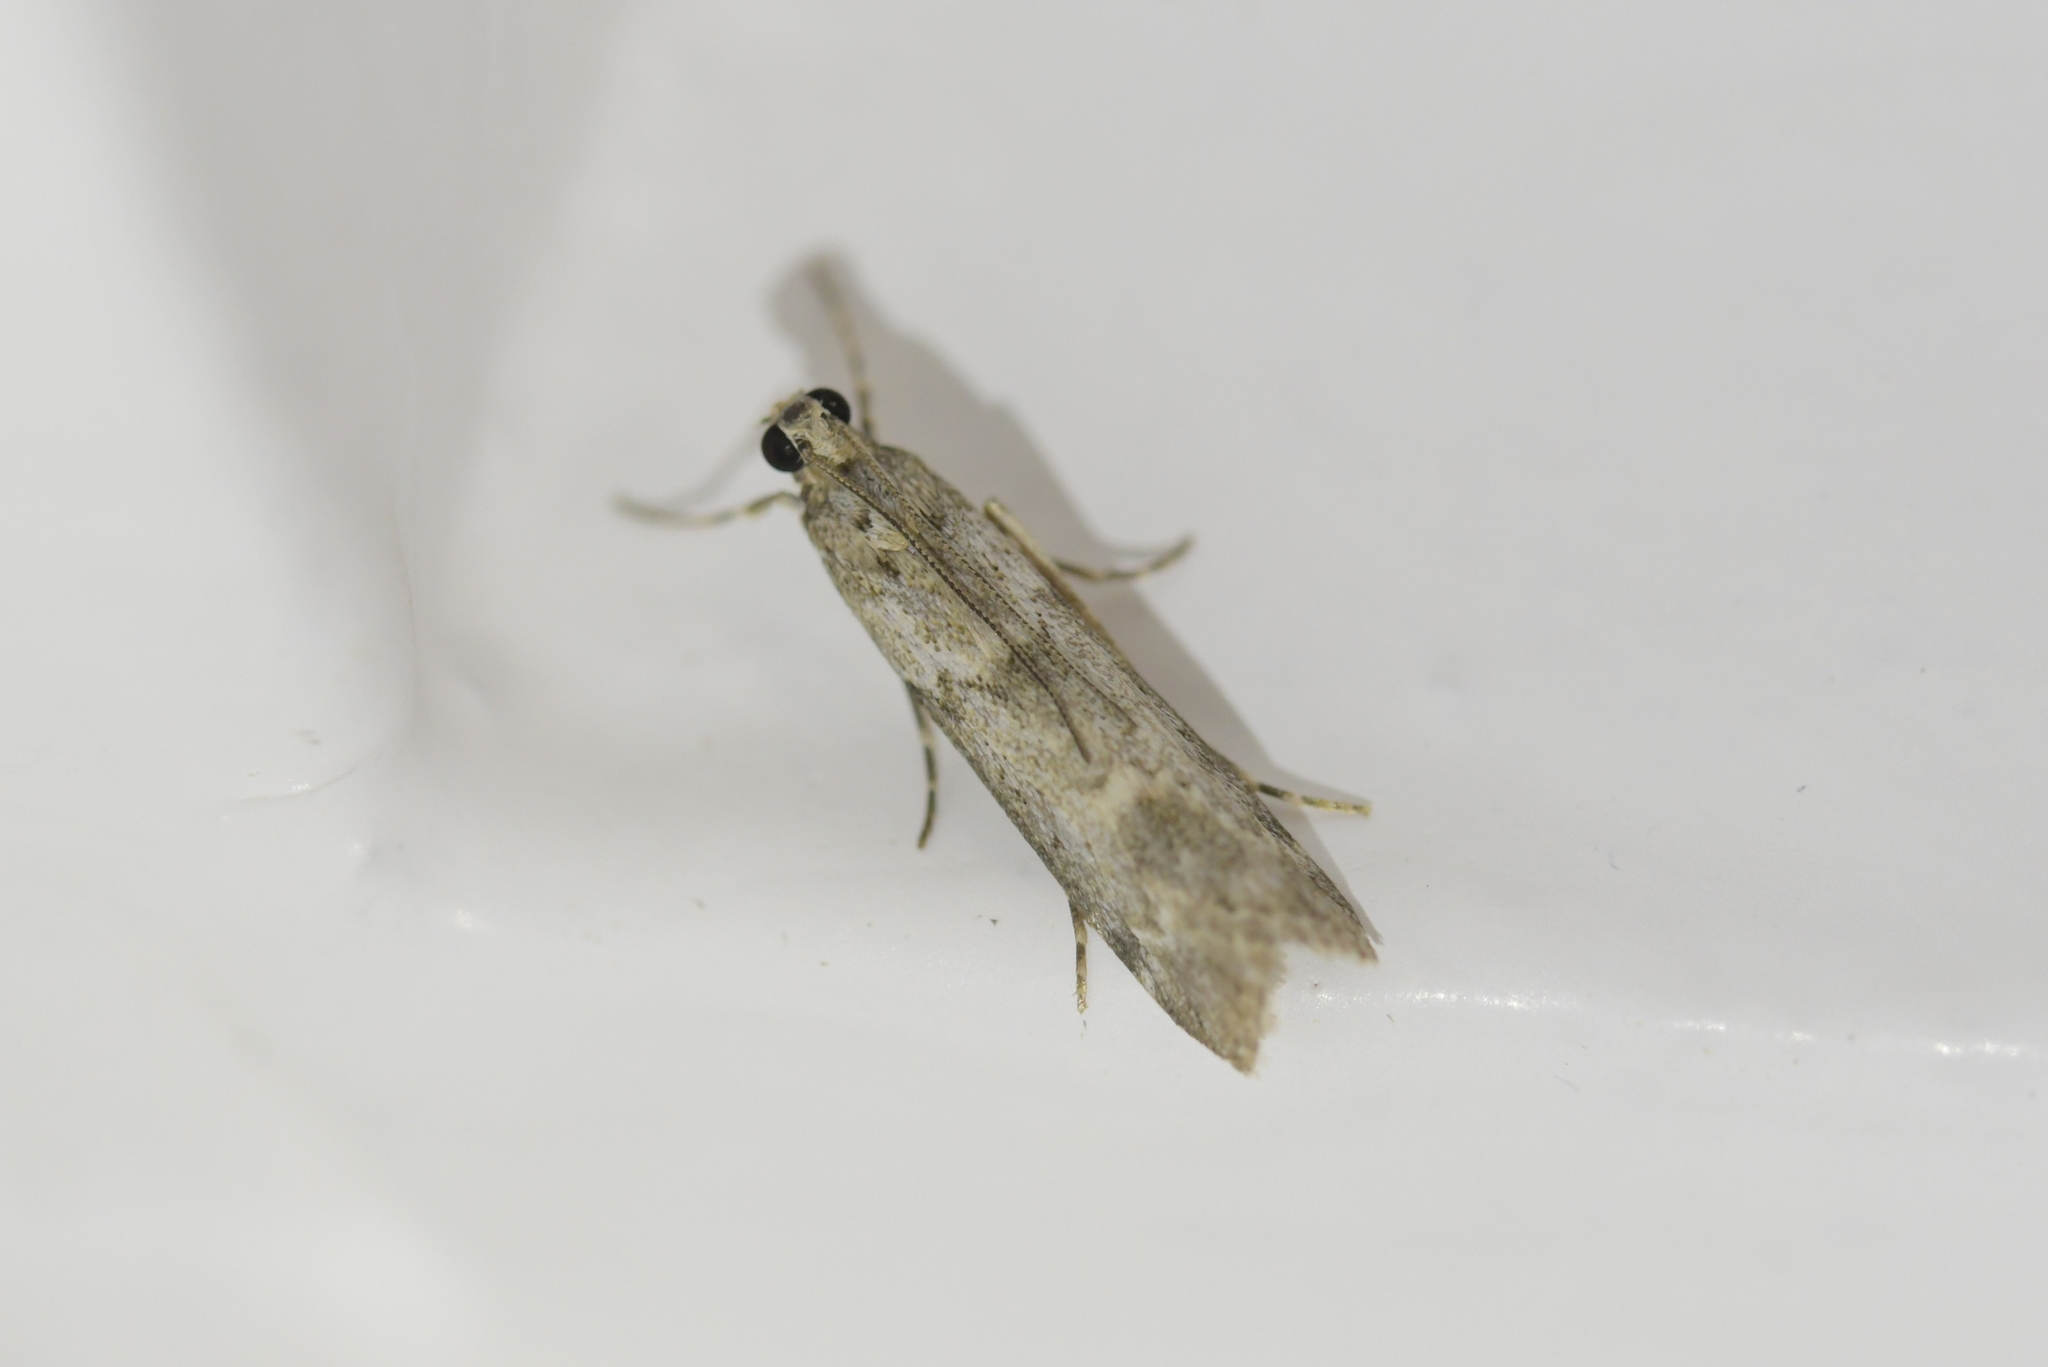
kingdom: Animalia
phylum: Arthropoda
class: Insecta
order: Lepidoptera
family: Crambidae
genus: Eudonia
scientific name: Eudonia leptalea
